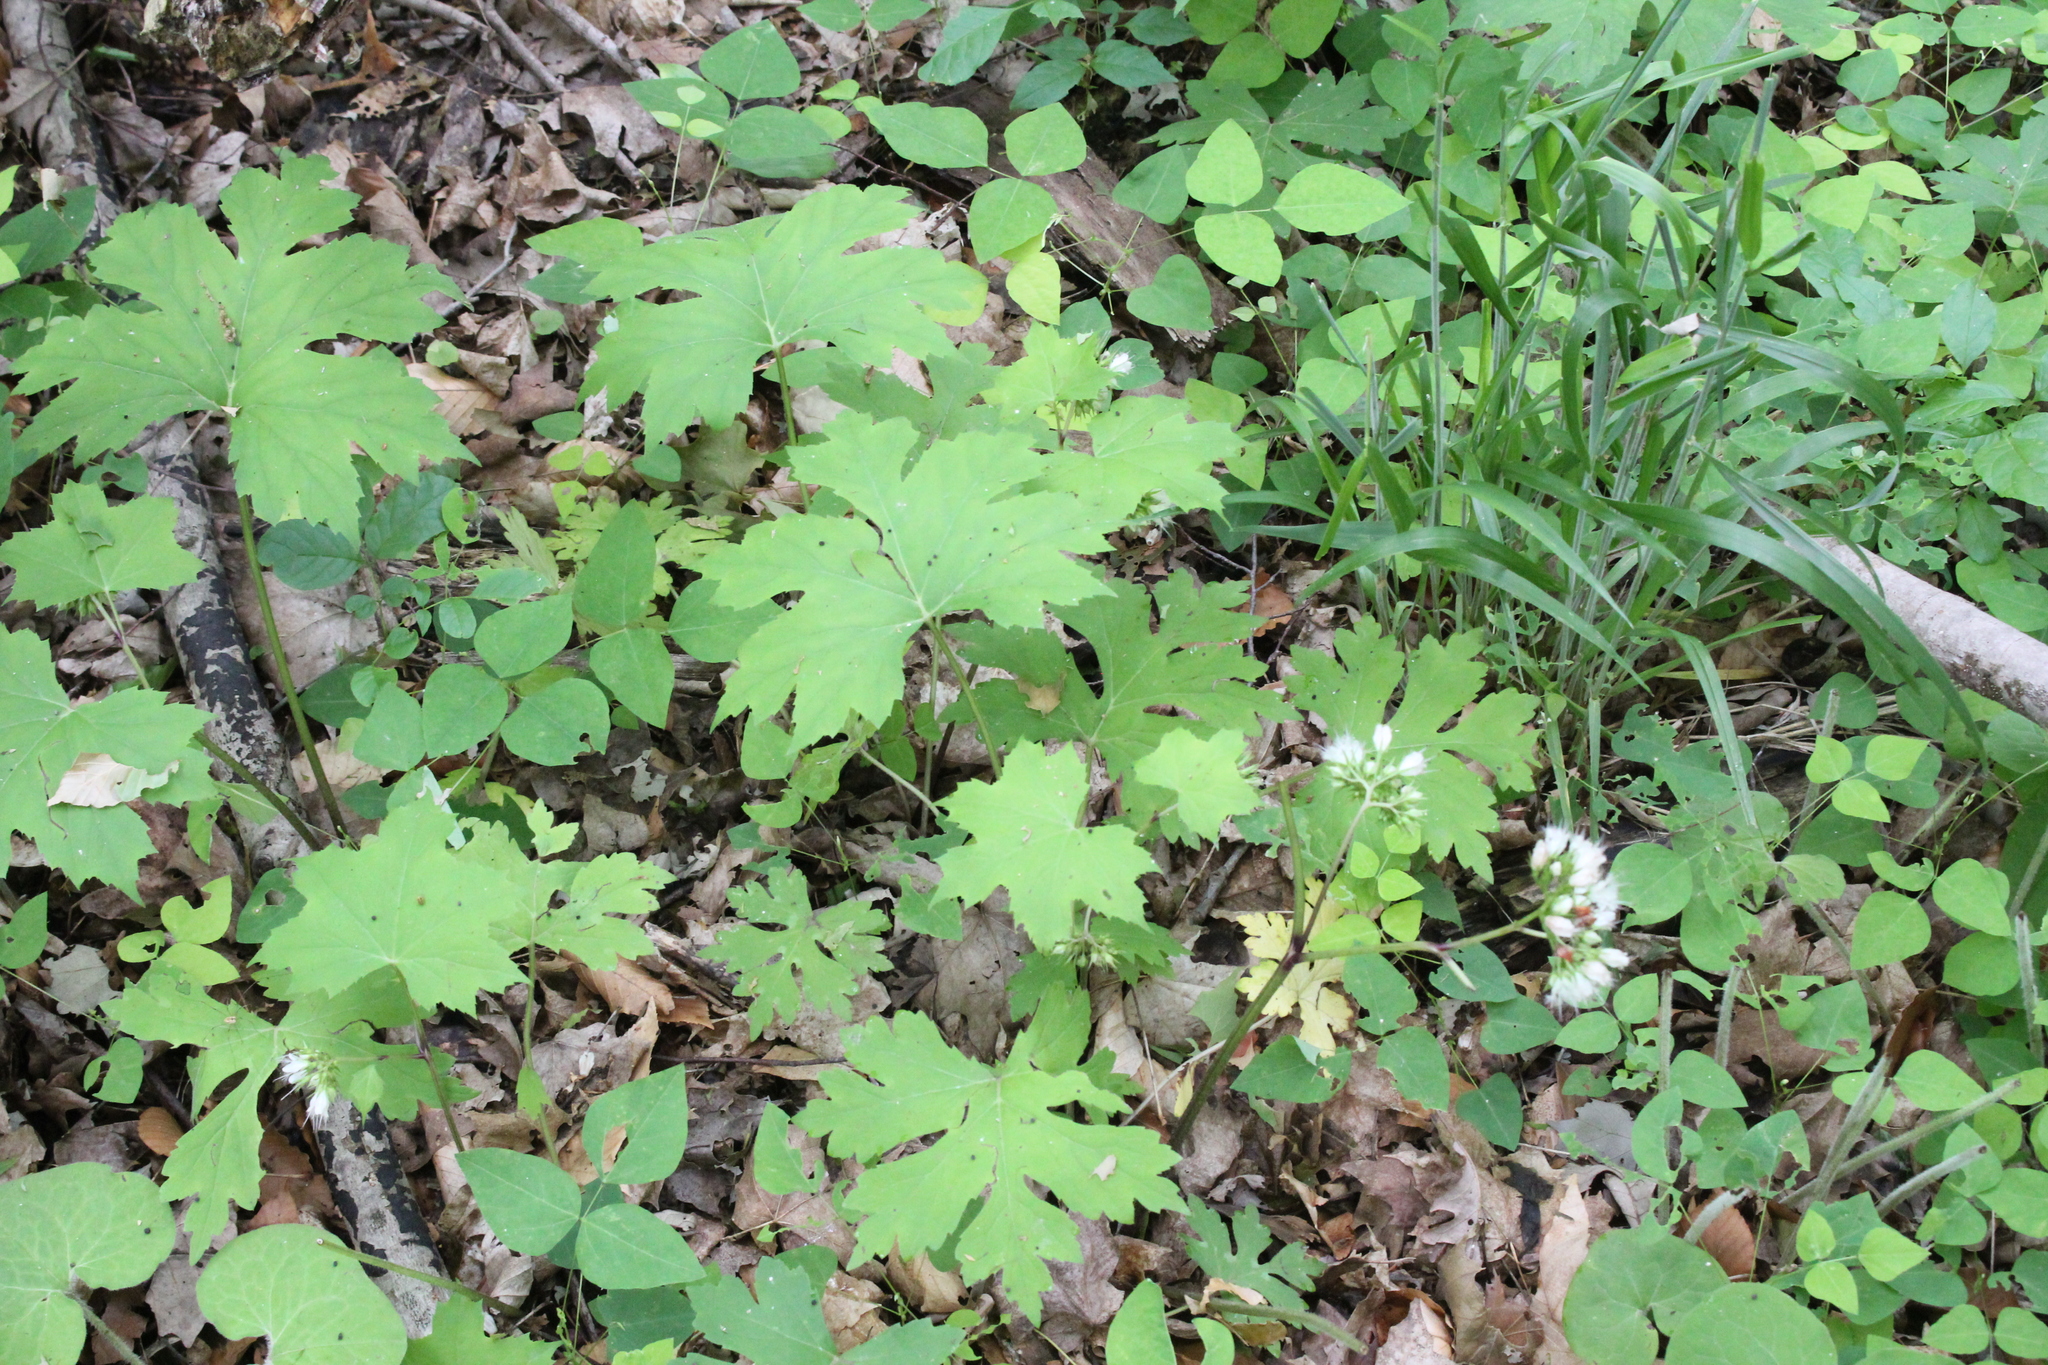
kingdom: Plantae
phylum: Tracheophyta
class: Magnoliopsida
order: Boraginales
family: Hydrophyllaceae
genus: Hydrophyllum
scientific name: Hydrophyllum canadense
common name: Canada waterleaf
